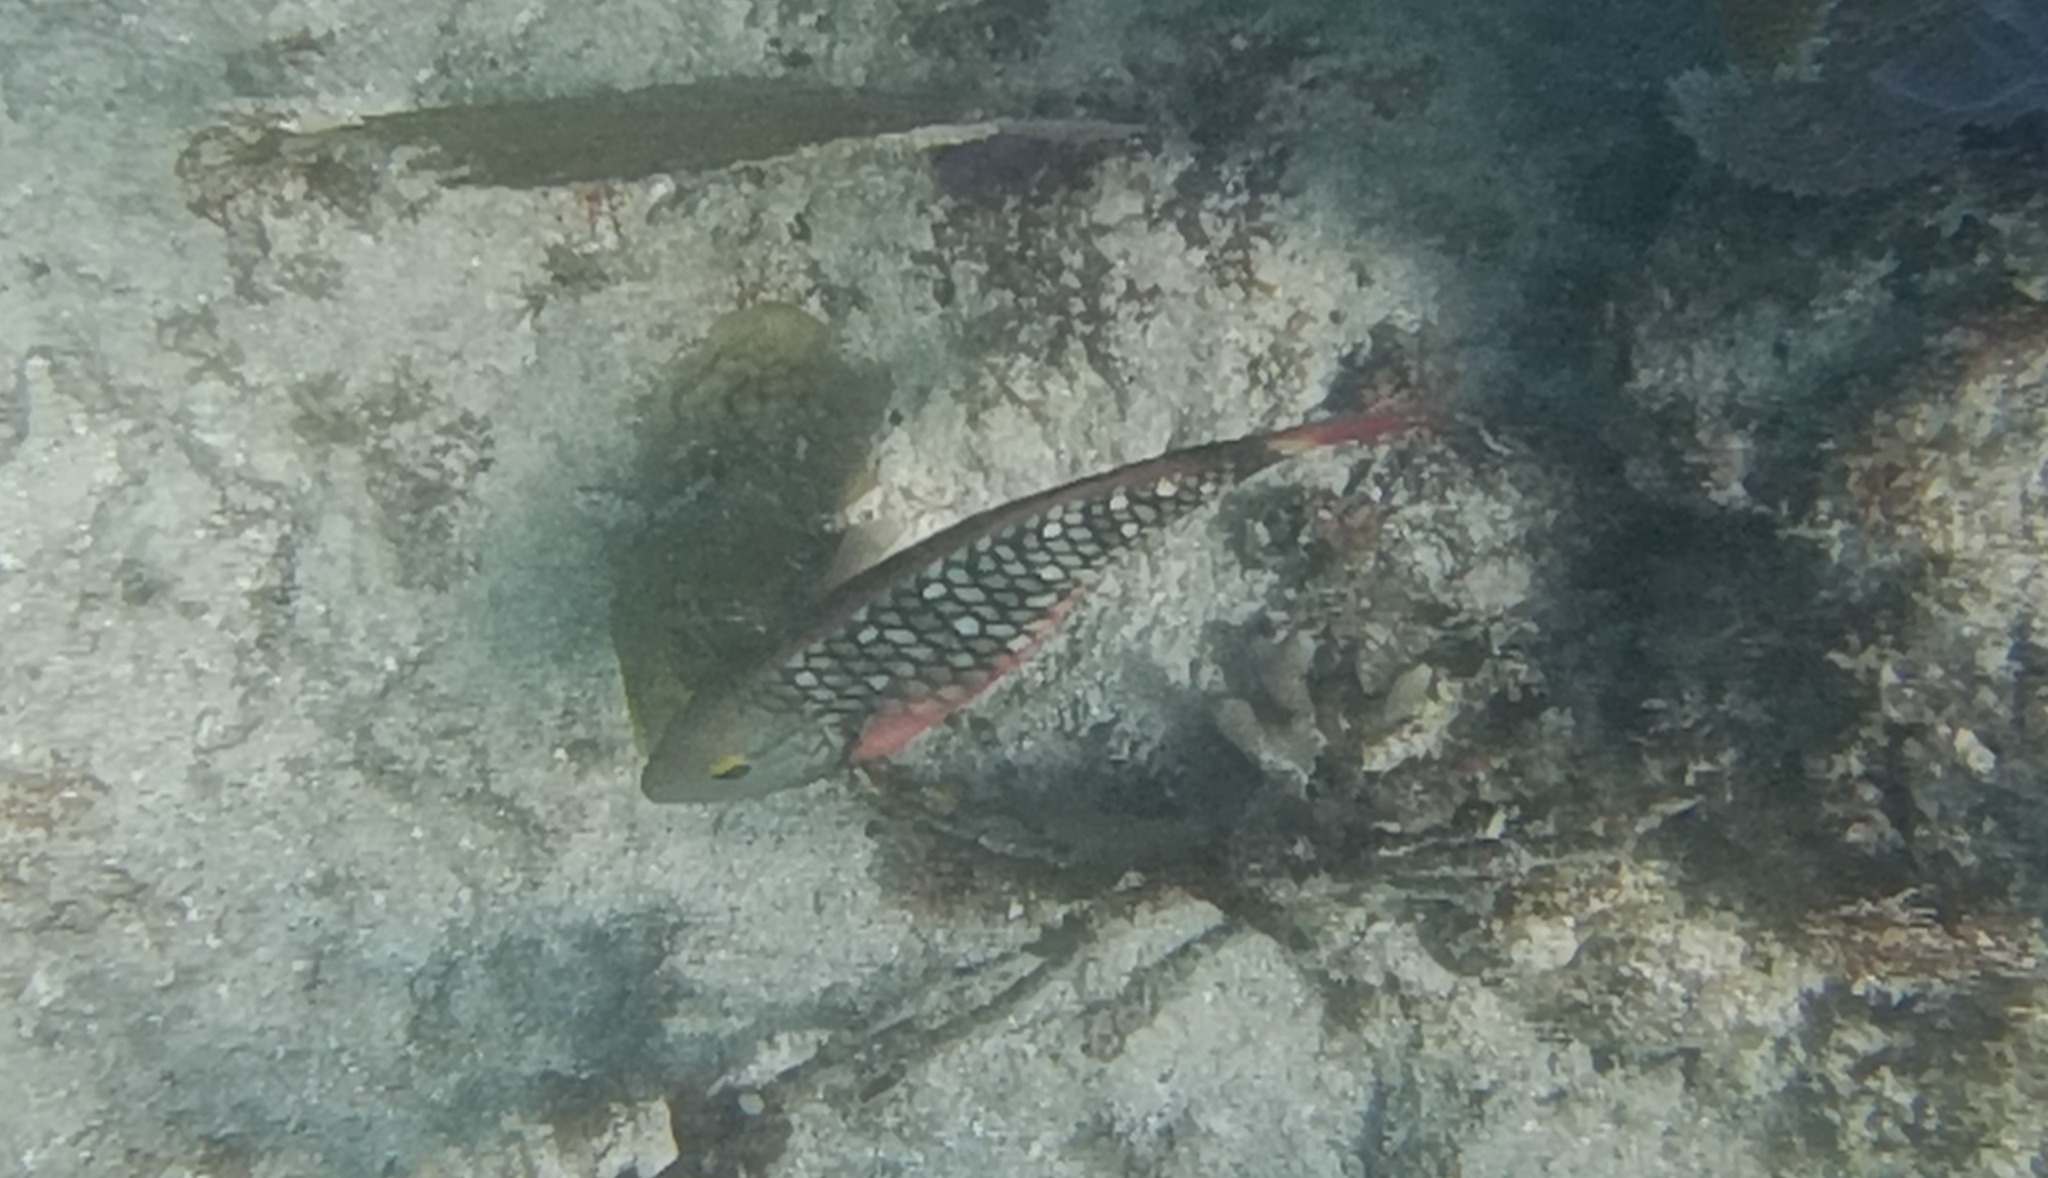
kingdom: Animalia
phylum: Chordata
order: Perciformes
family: Scaridae
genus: Sparisoma
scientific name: Sparisoma viride
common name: Stoplight parrotfish
